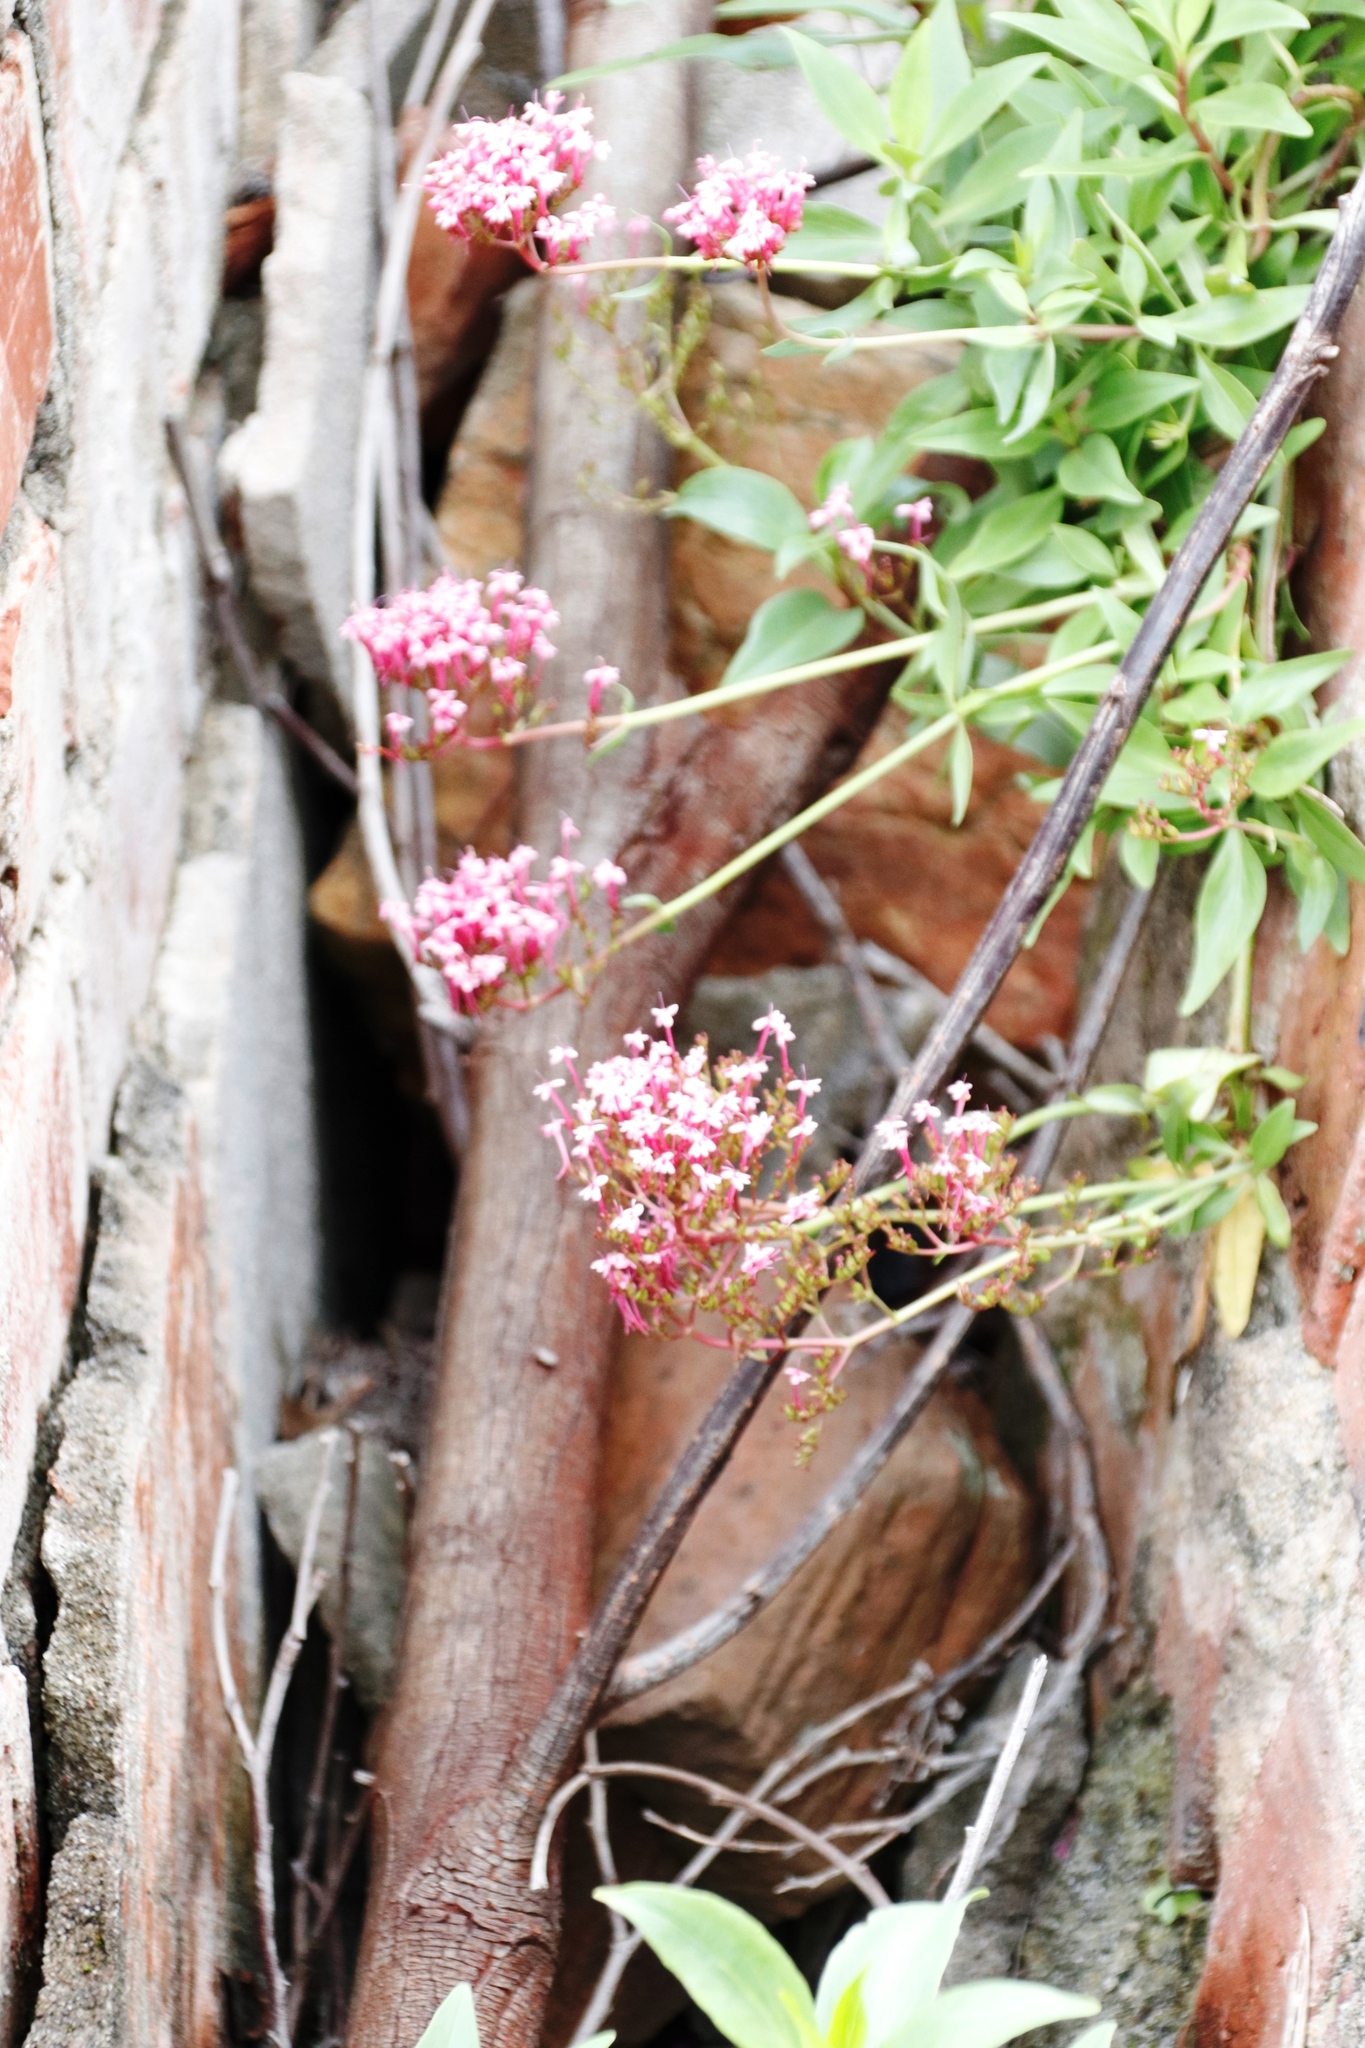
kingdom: Plantae
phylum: Tracheophyta
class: Magnoliopsida
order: Dipsacales
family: Caprifoliaceae
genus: Centranthus
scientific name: Centranthus ruber
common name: Red valerian
